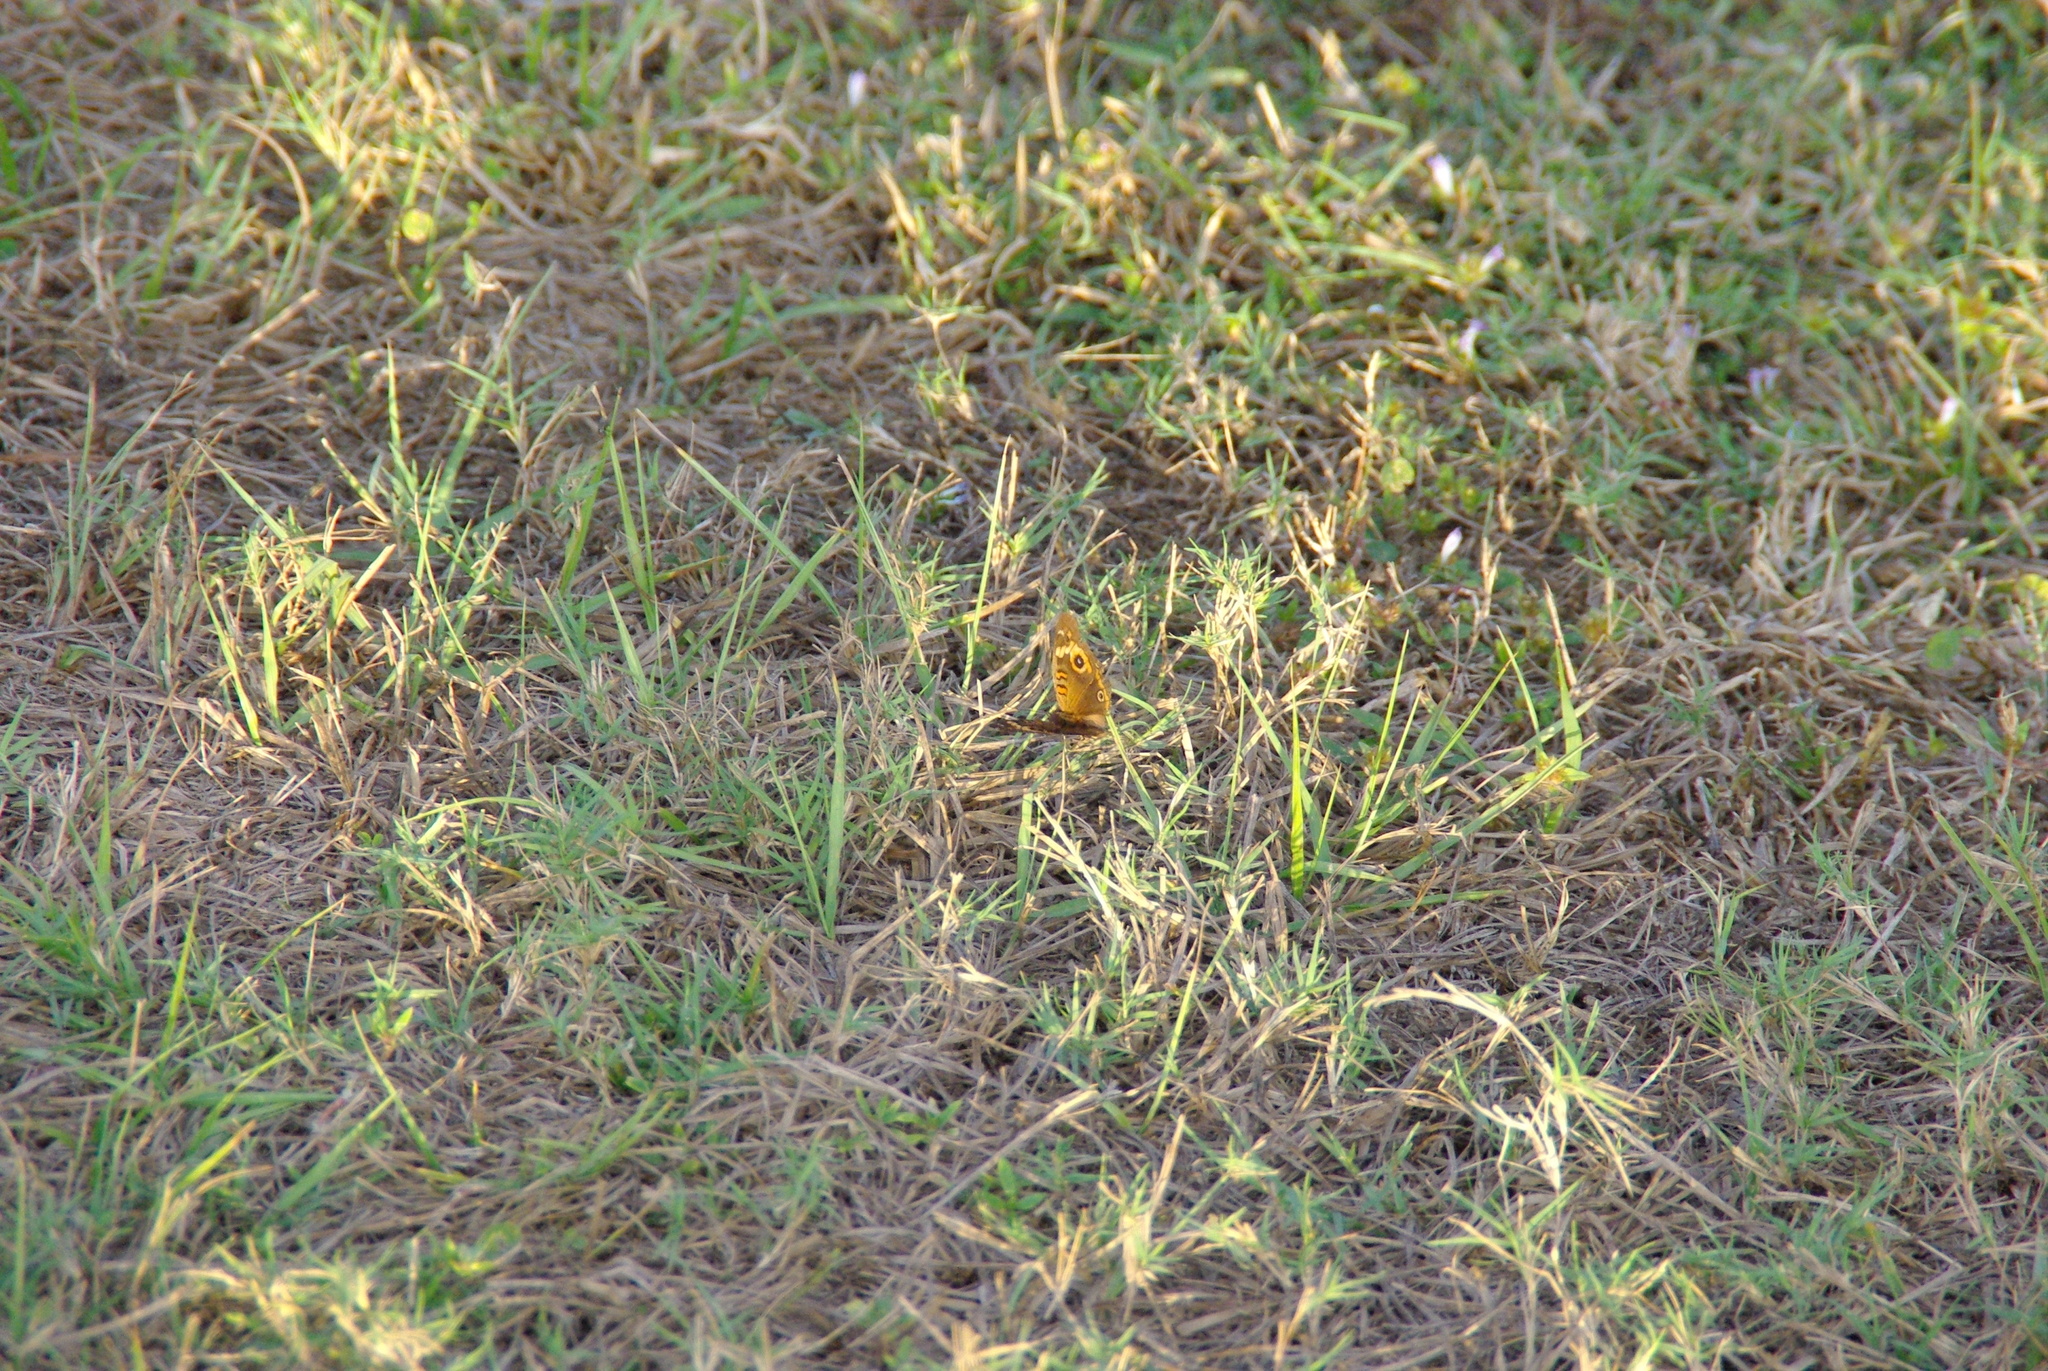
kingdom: Animalia
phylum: Arthropoda
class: Insecta
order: Lepidoptera
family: Nymphalidae
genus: Junonia
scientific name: Junonia coenia
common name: Common buckeye
